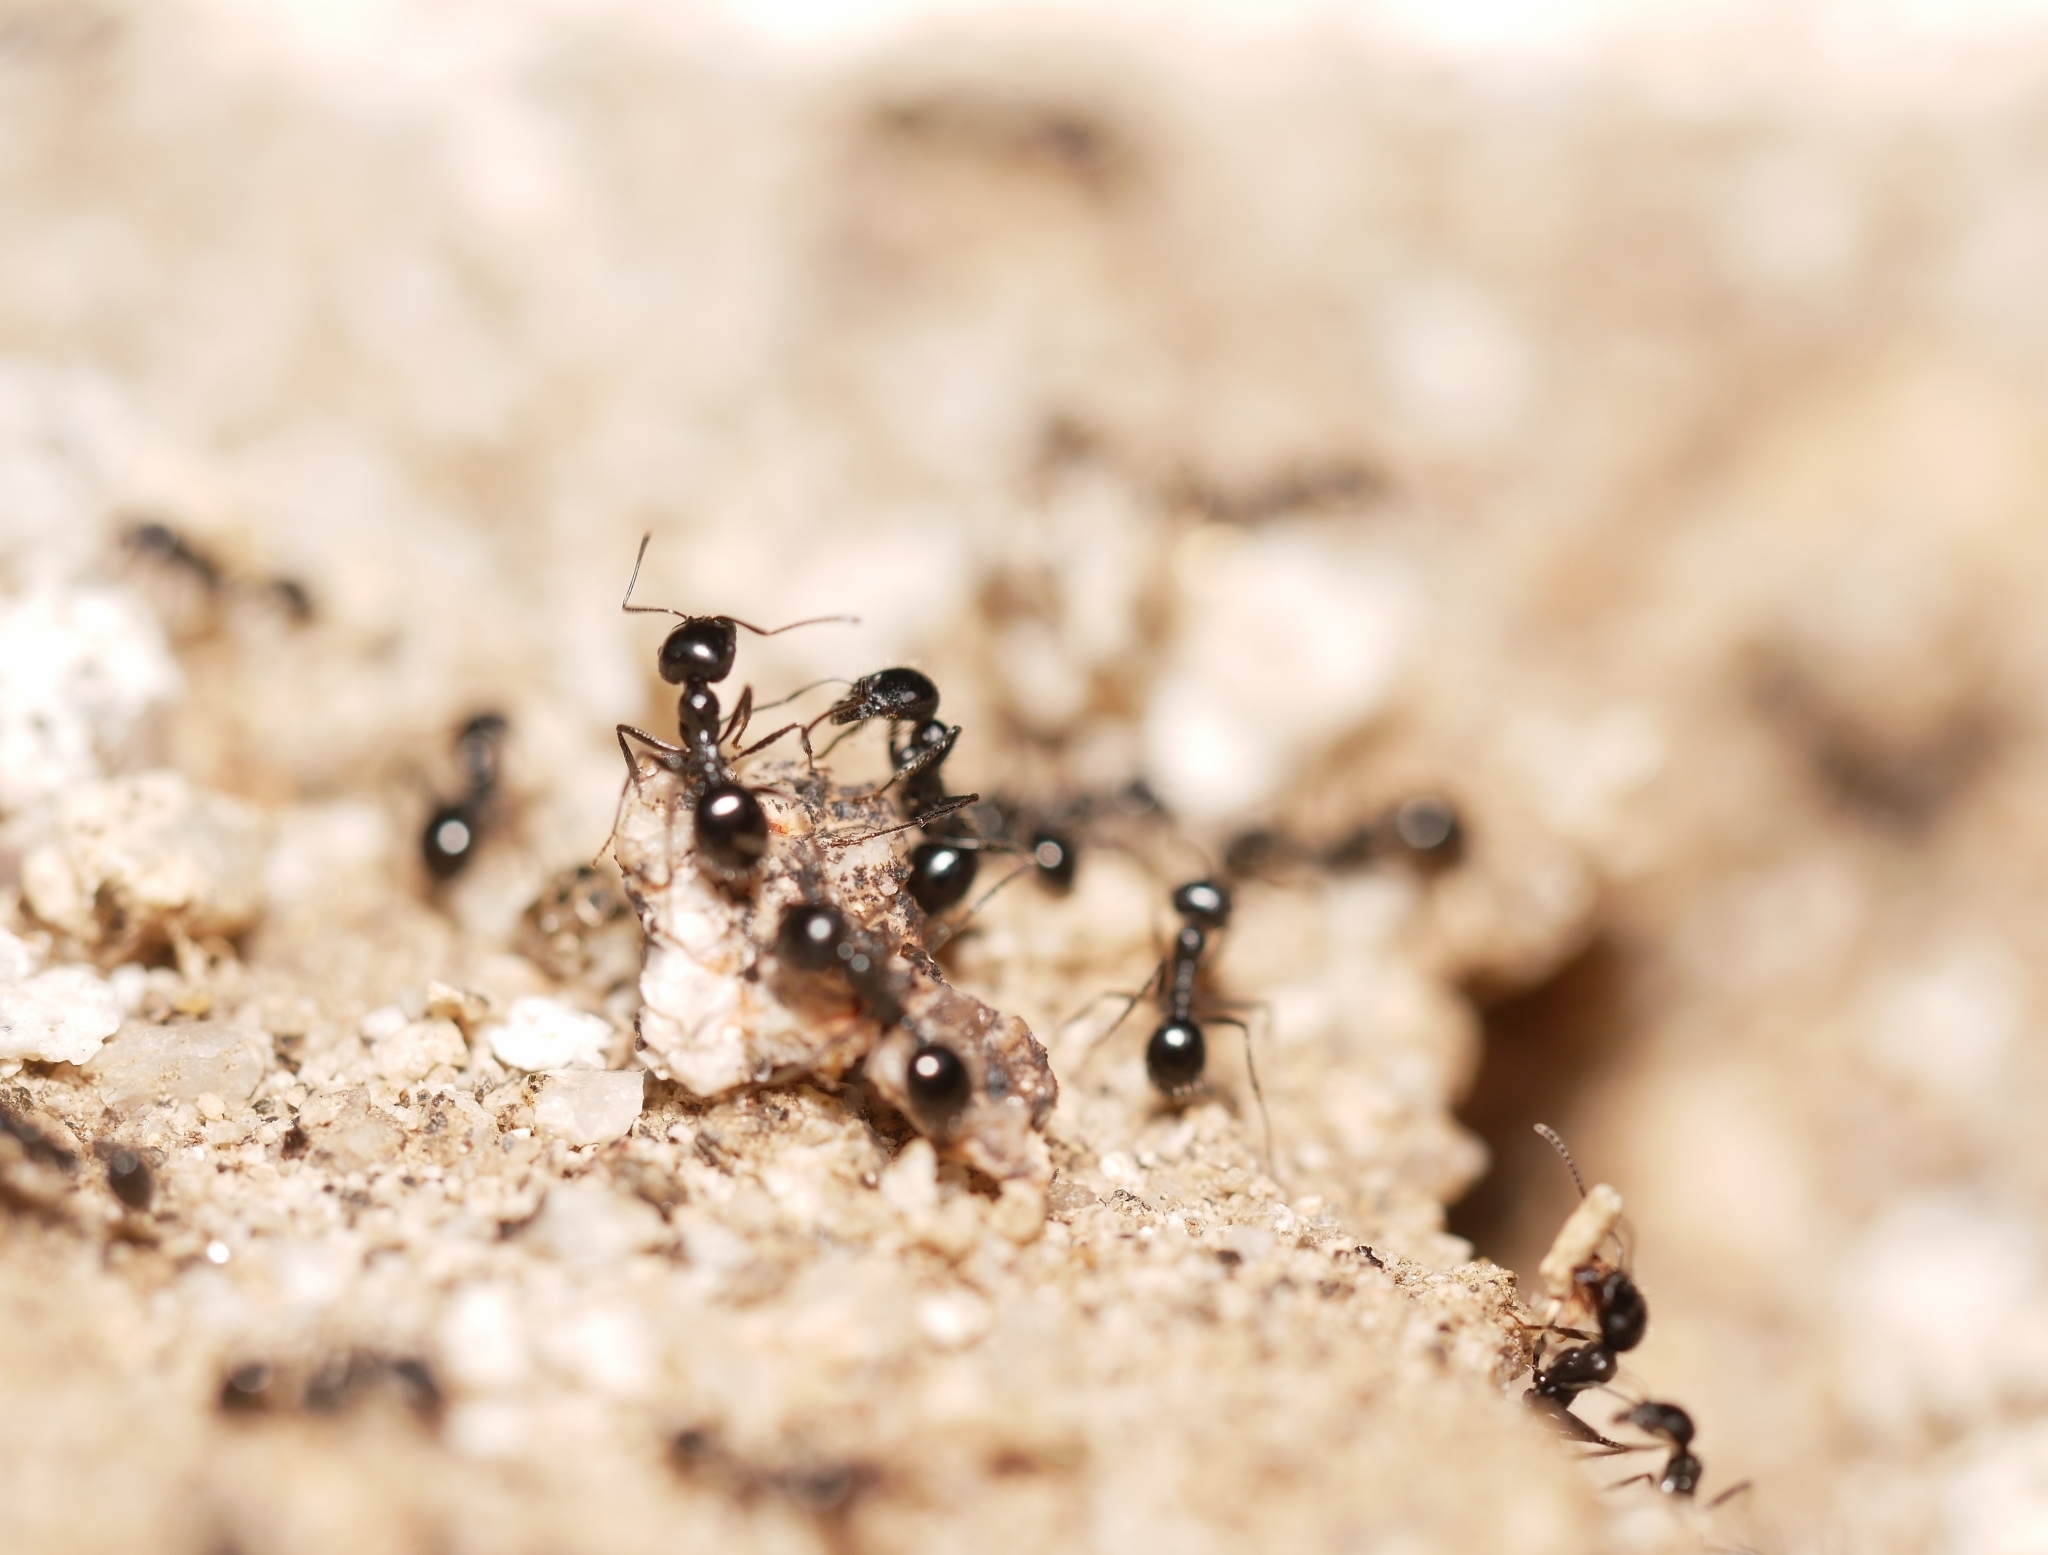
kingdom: Animalia
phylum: Arthropoda
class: Insecta
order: Hymenoptera
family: Formicidae
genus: Messor
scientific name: Messor pergandei
